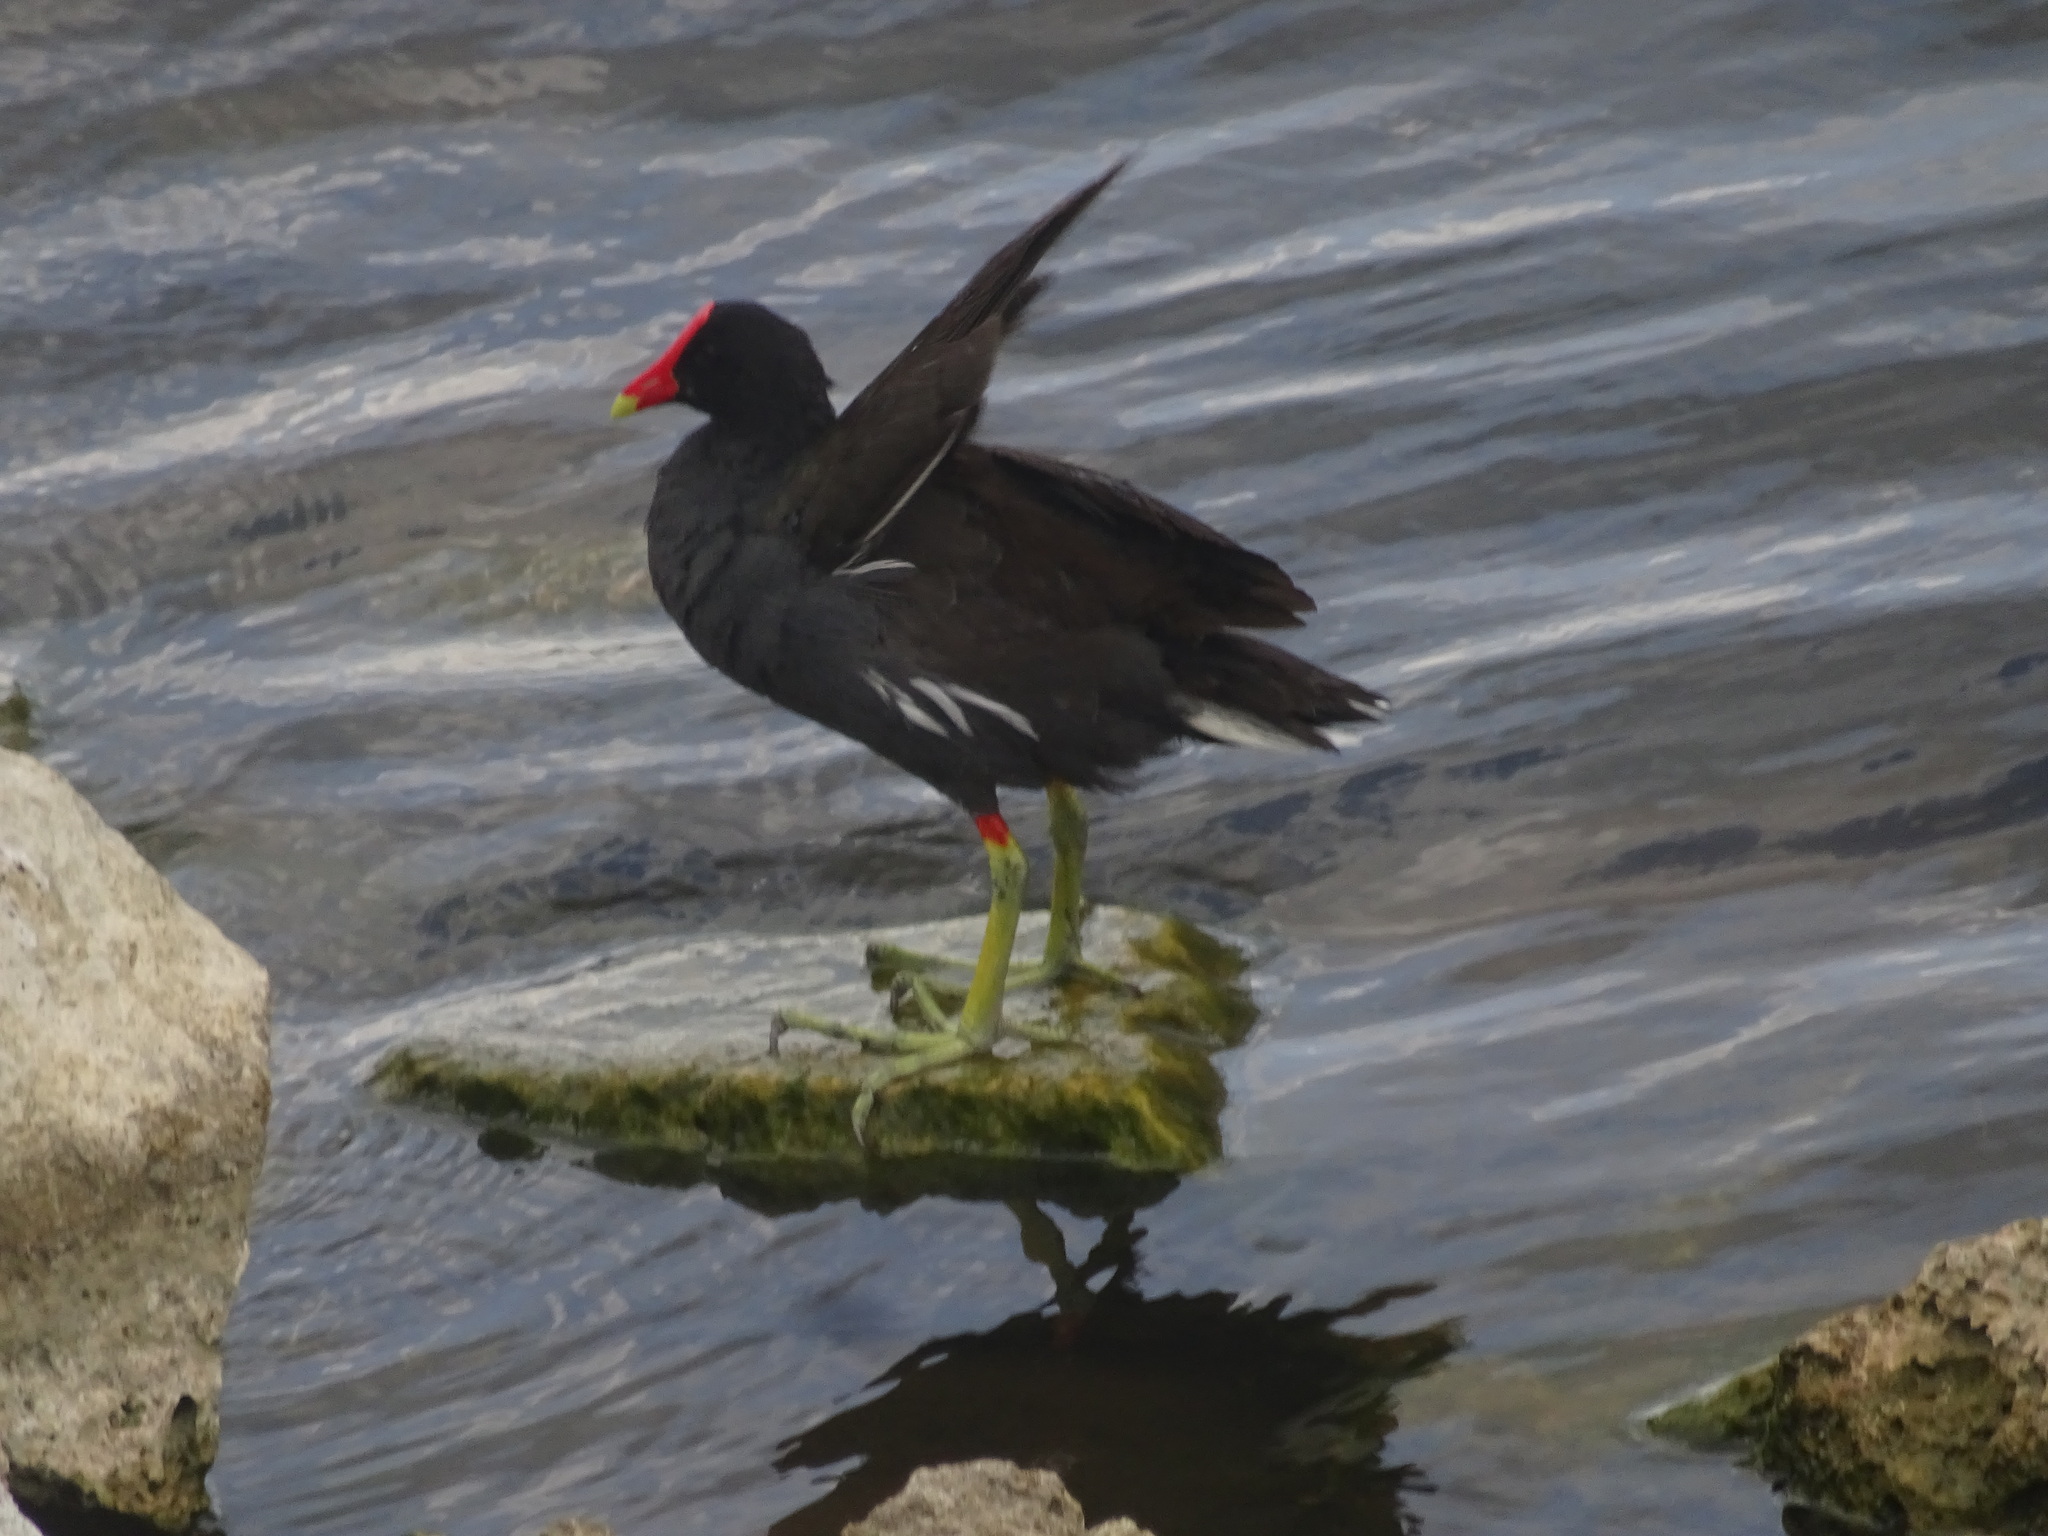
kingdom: Animalia
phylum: Chordata
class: Aves
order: Gruiformes
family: Rallidae
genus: Gallinula
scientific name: Gallinula chloropus
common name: Common moorhen
